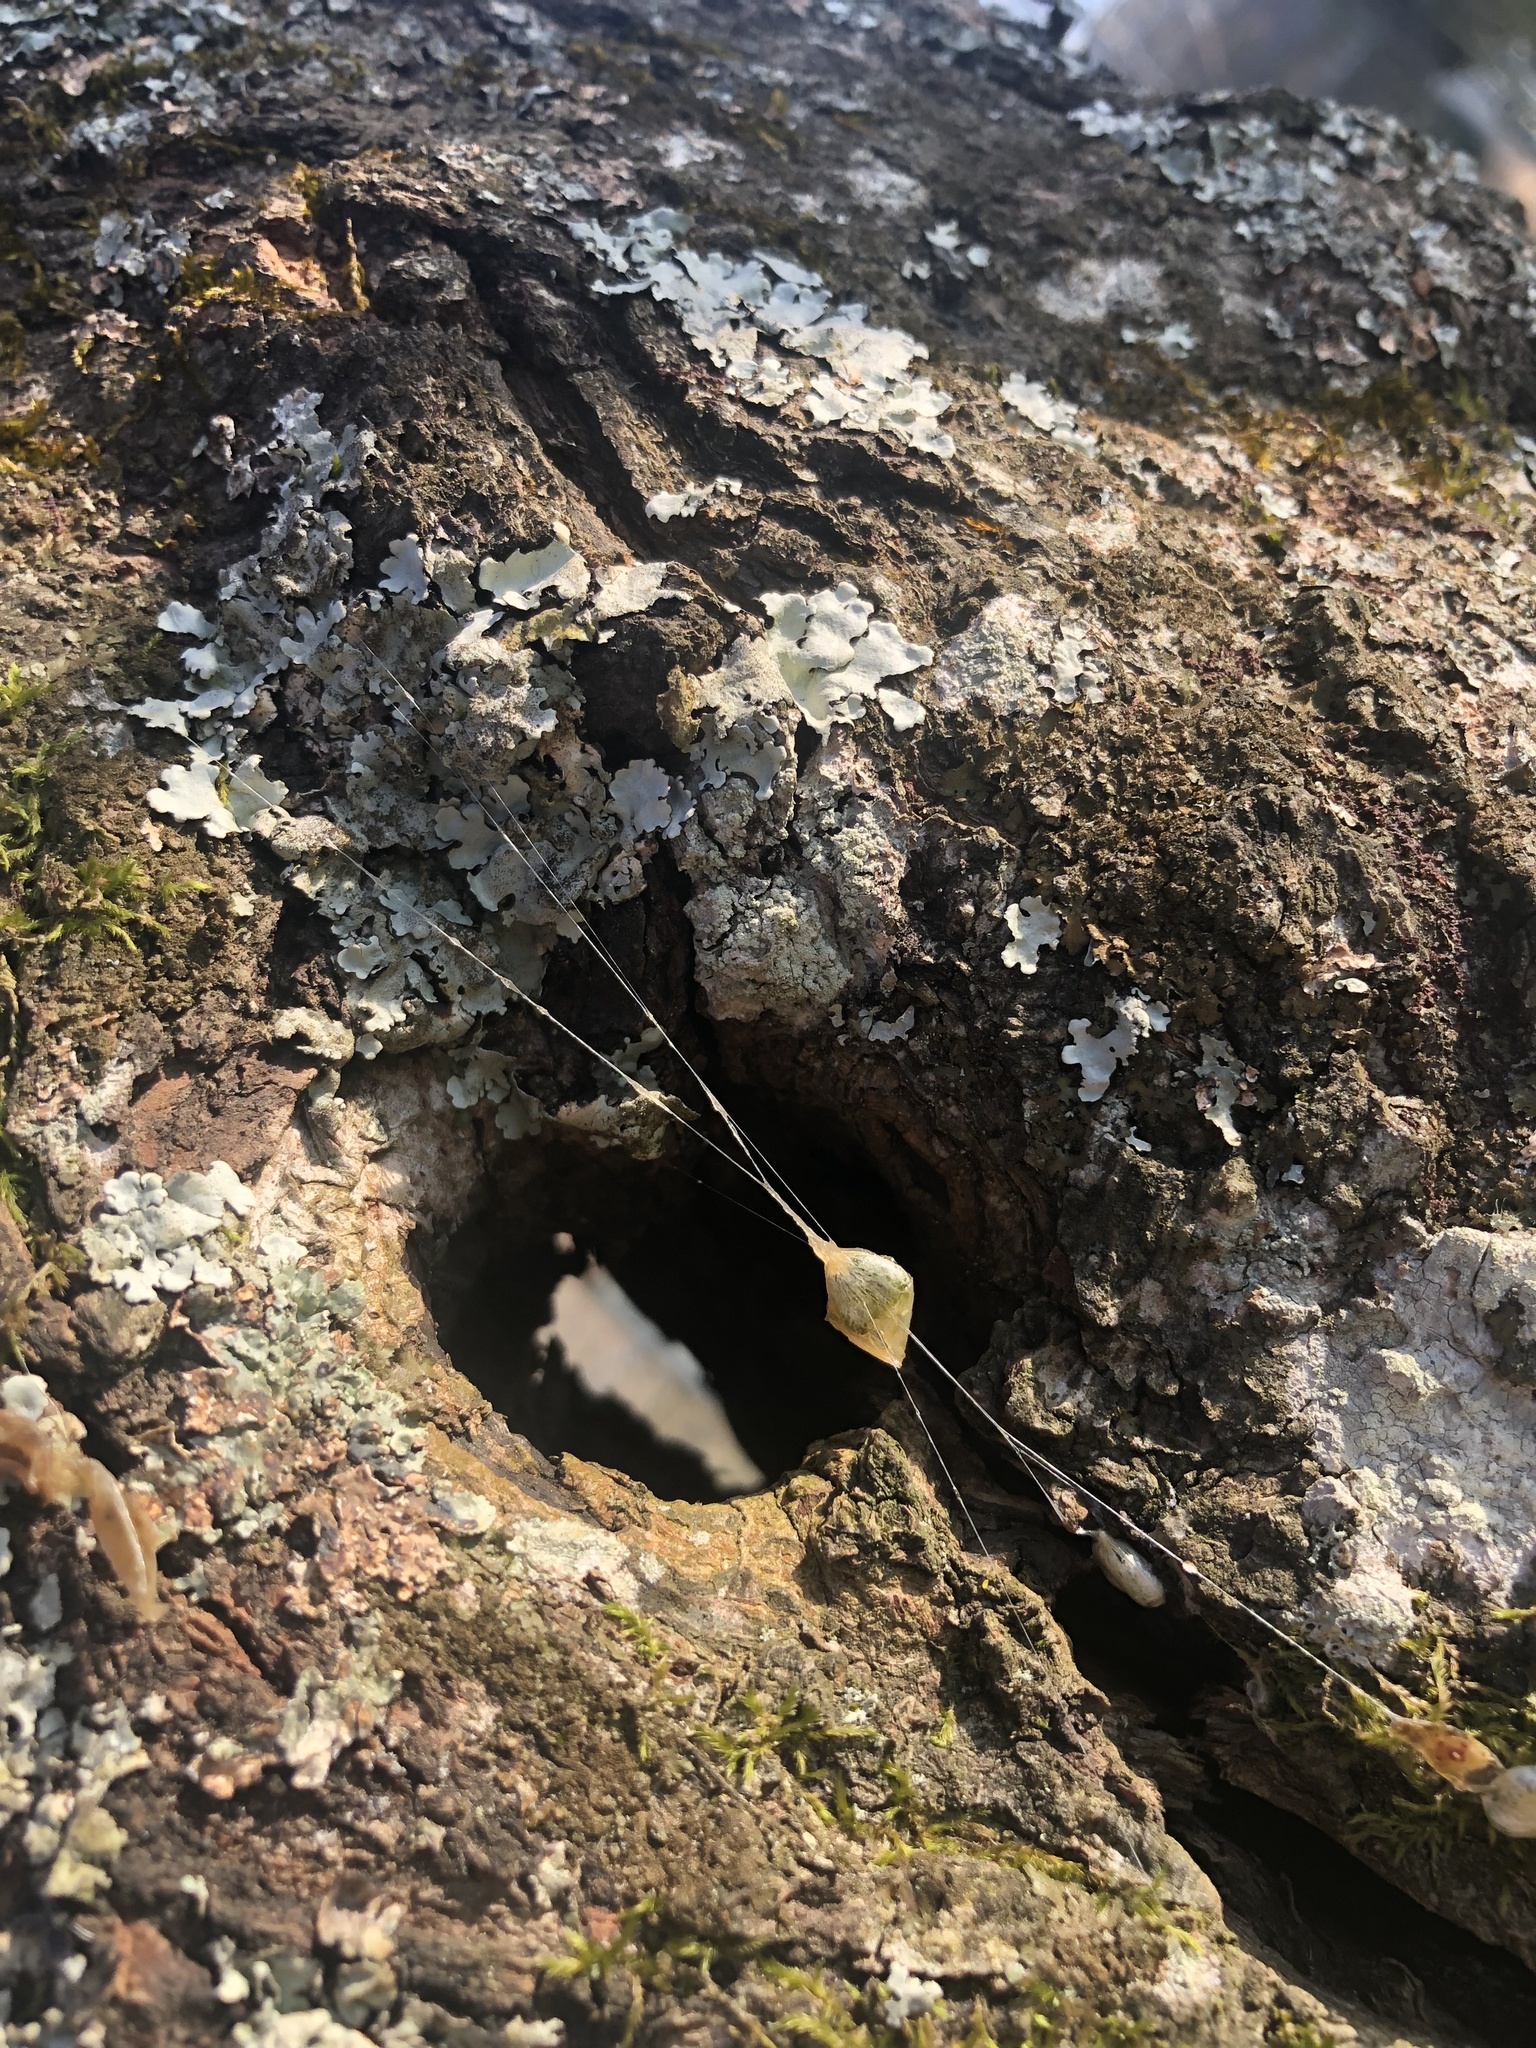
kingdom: Plantae
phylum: Tracheophyta
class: Magnoliopsida
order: Santalales
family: Viscaceae
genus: Viscum
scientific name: Viscum album
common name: Mistletoe
